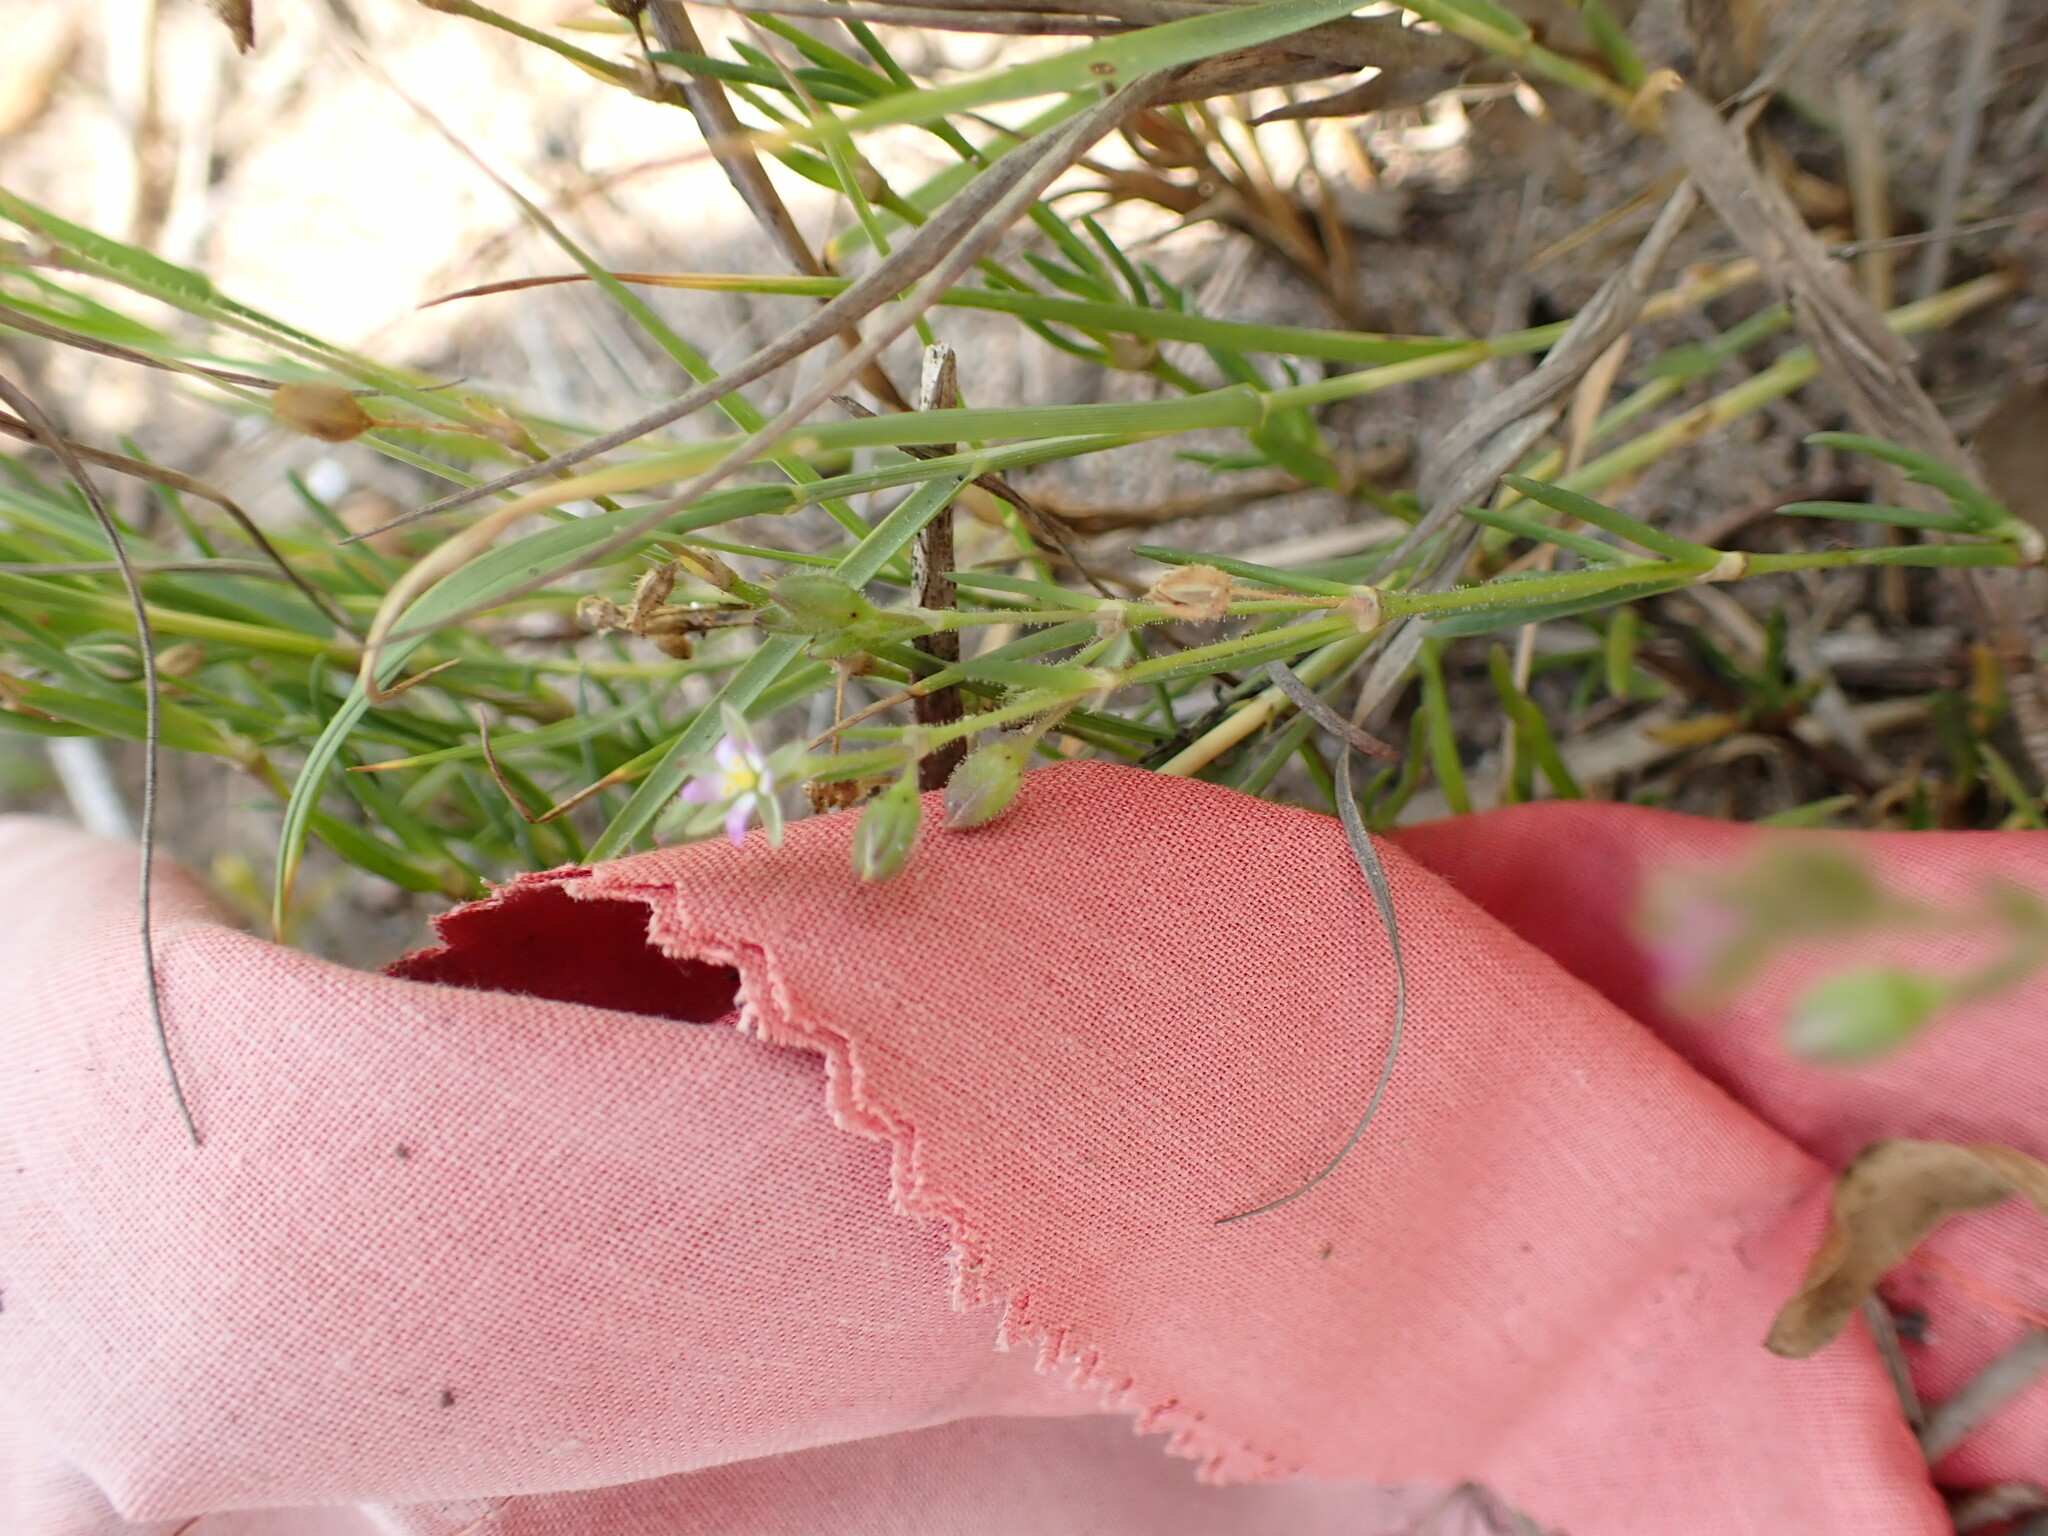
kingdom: Plantae
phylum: Tracheophyta
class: Magnoliopsida
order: Caryophyllales
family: Caryophyllaceae
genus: Spergularia
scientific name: Spergularia marina
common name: Lesser sea-spurrey
